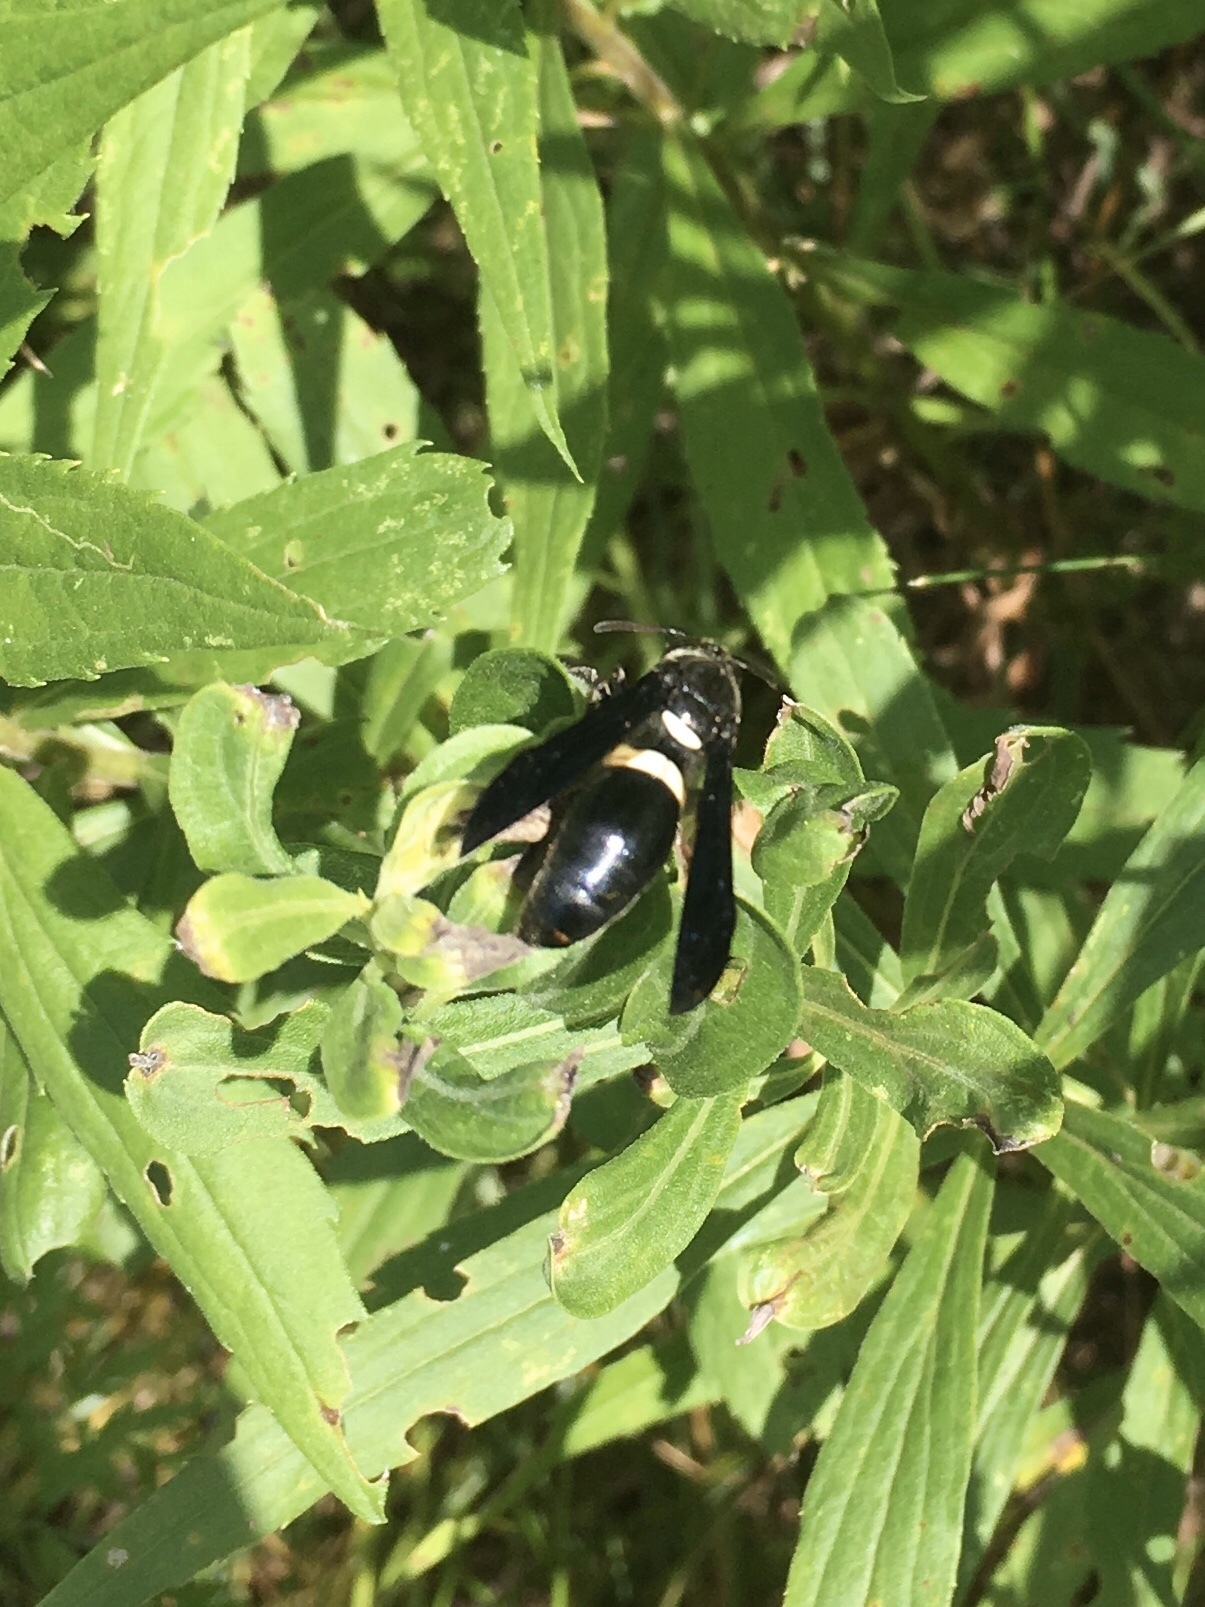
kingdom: Animalia
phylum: Arthropoda
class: Insecta
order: Hymenoptera
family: Eumenidae
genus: Monobia
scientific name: Monobia quadridens
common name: Four-toothed mason wasp
